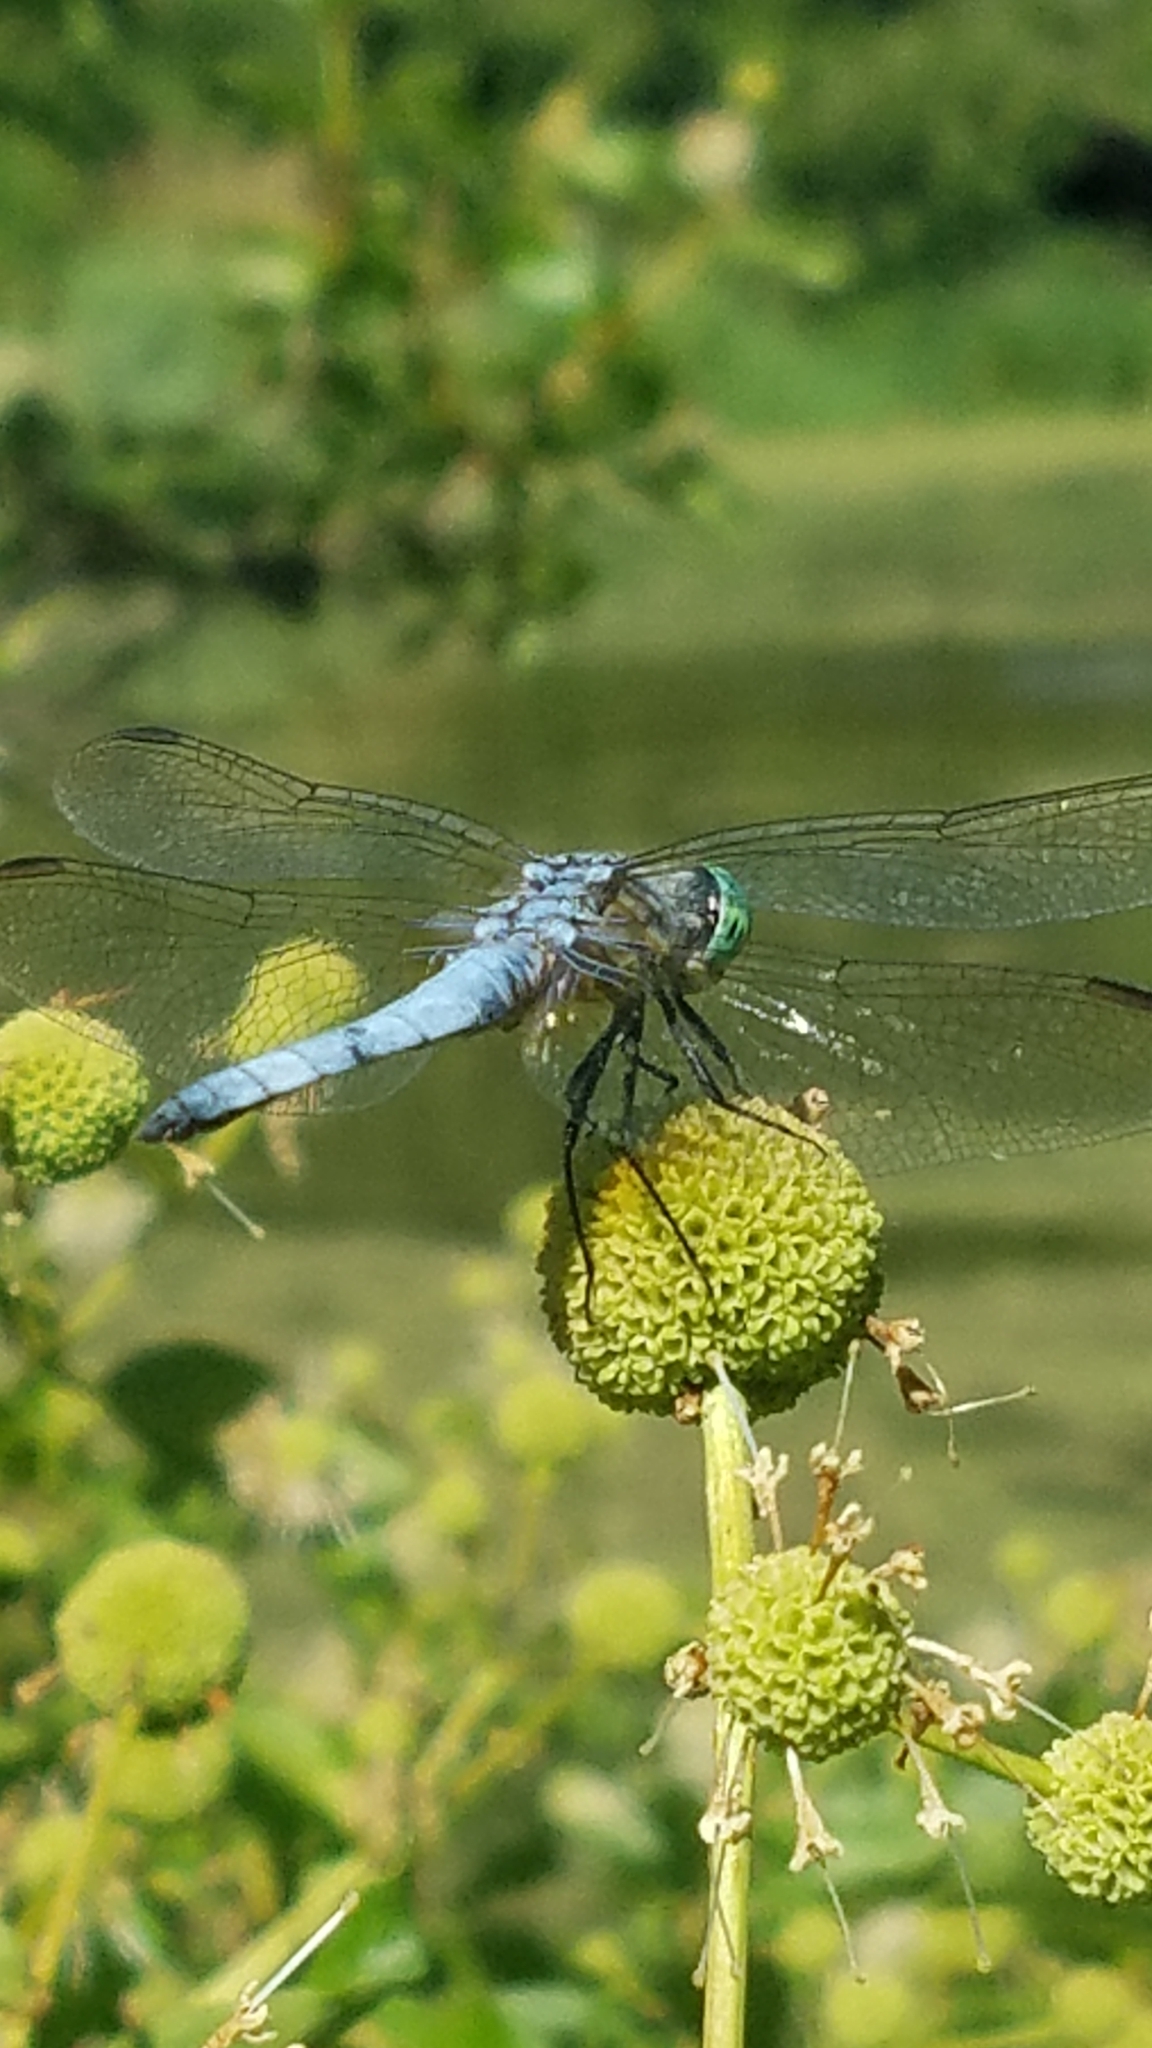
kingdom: Animalia
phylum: Arthropoda
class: Insecta
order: Odonata
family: Libellulidae
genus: Pachydiplax
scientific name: Pachydiplax longipennis
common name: Blue dasher
